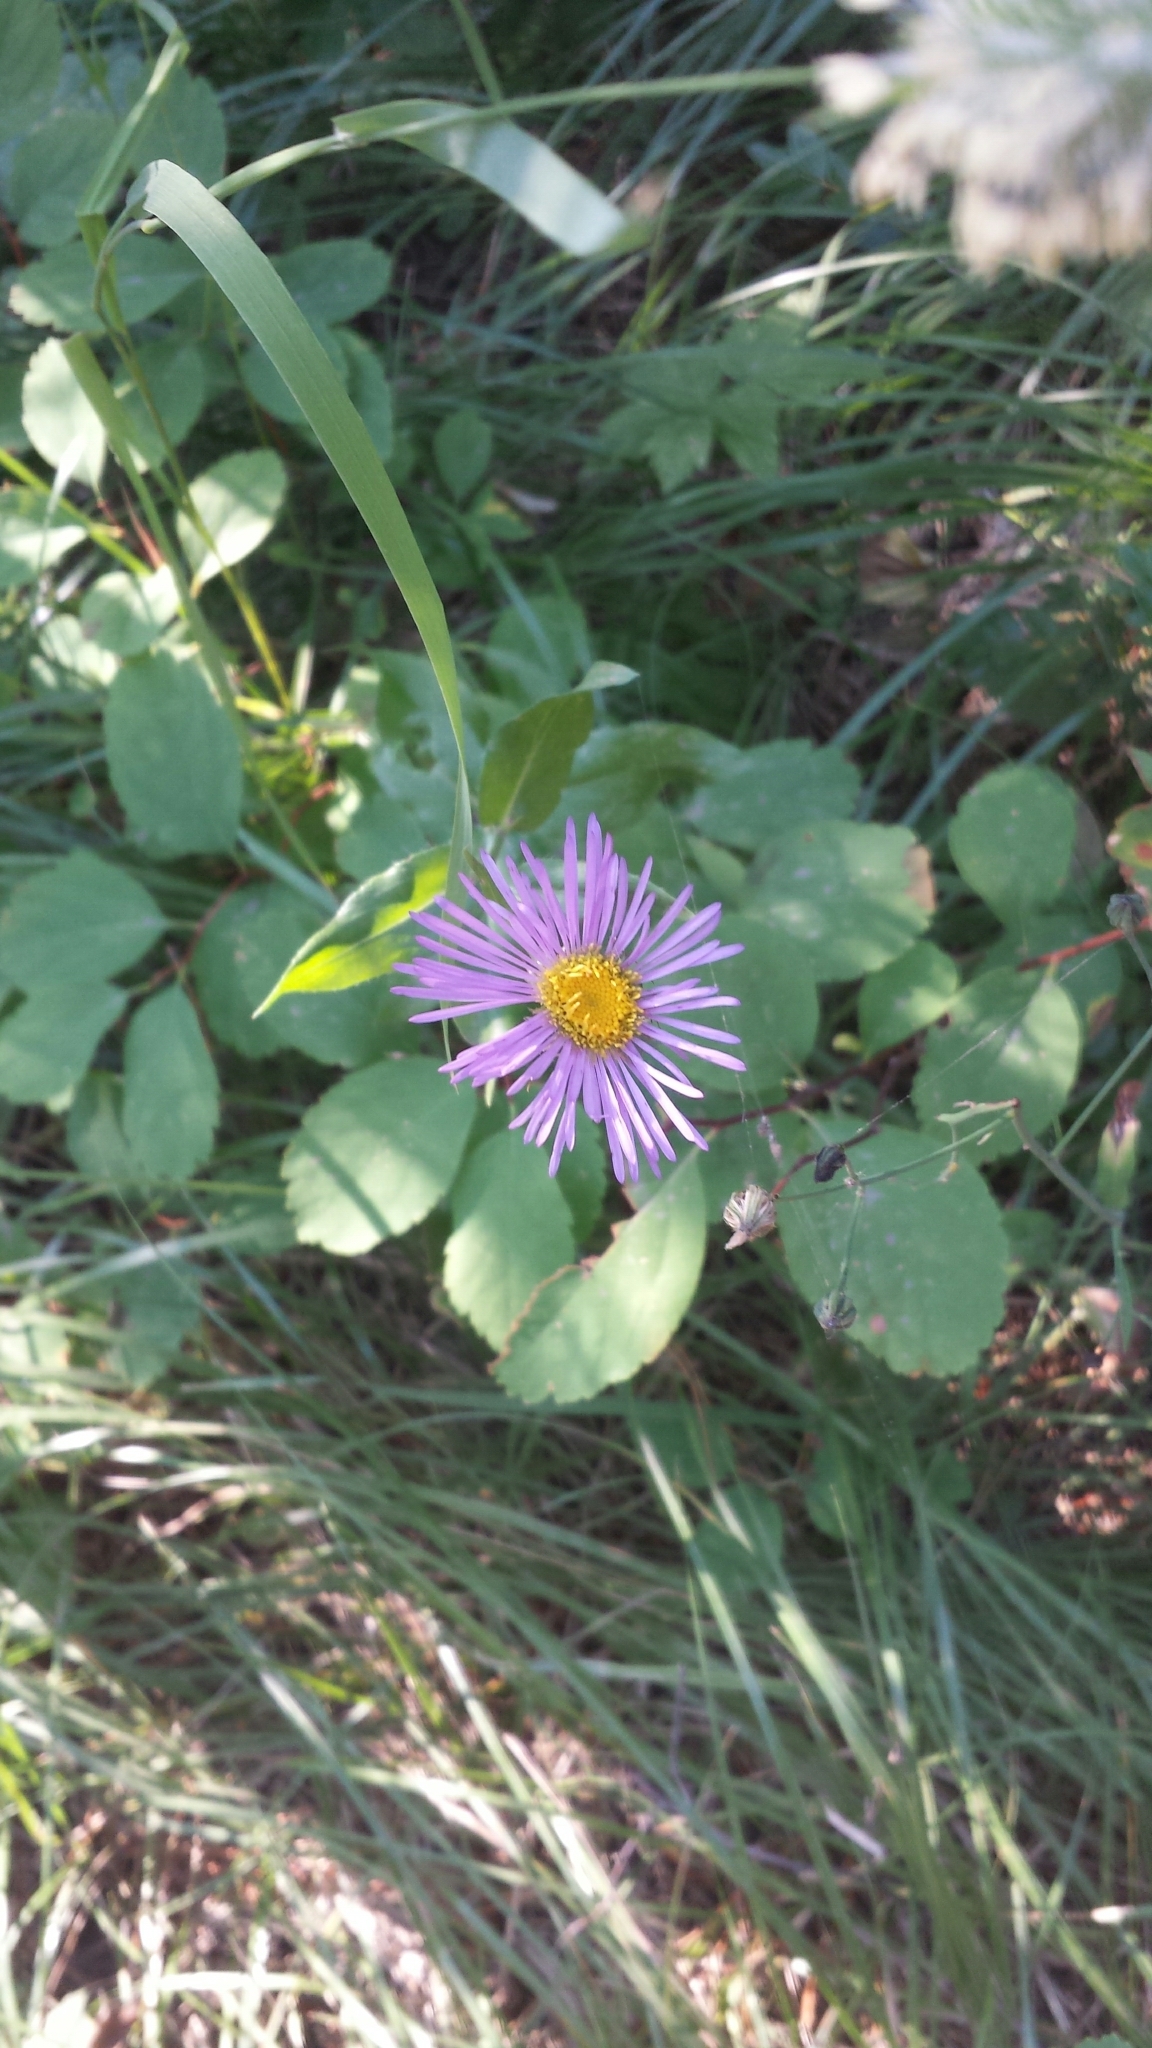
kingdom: Plantae
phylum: Tracheophyta
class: Magnoliopsida
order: Asterales
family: Asteraceae
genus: Erigeron
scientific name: Erigeron speciosus
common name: Aspen fleabane
